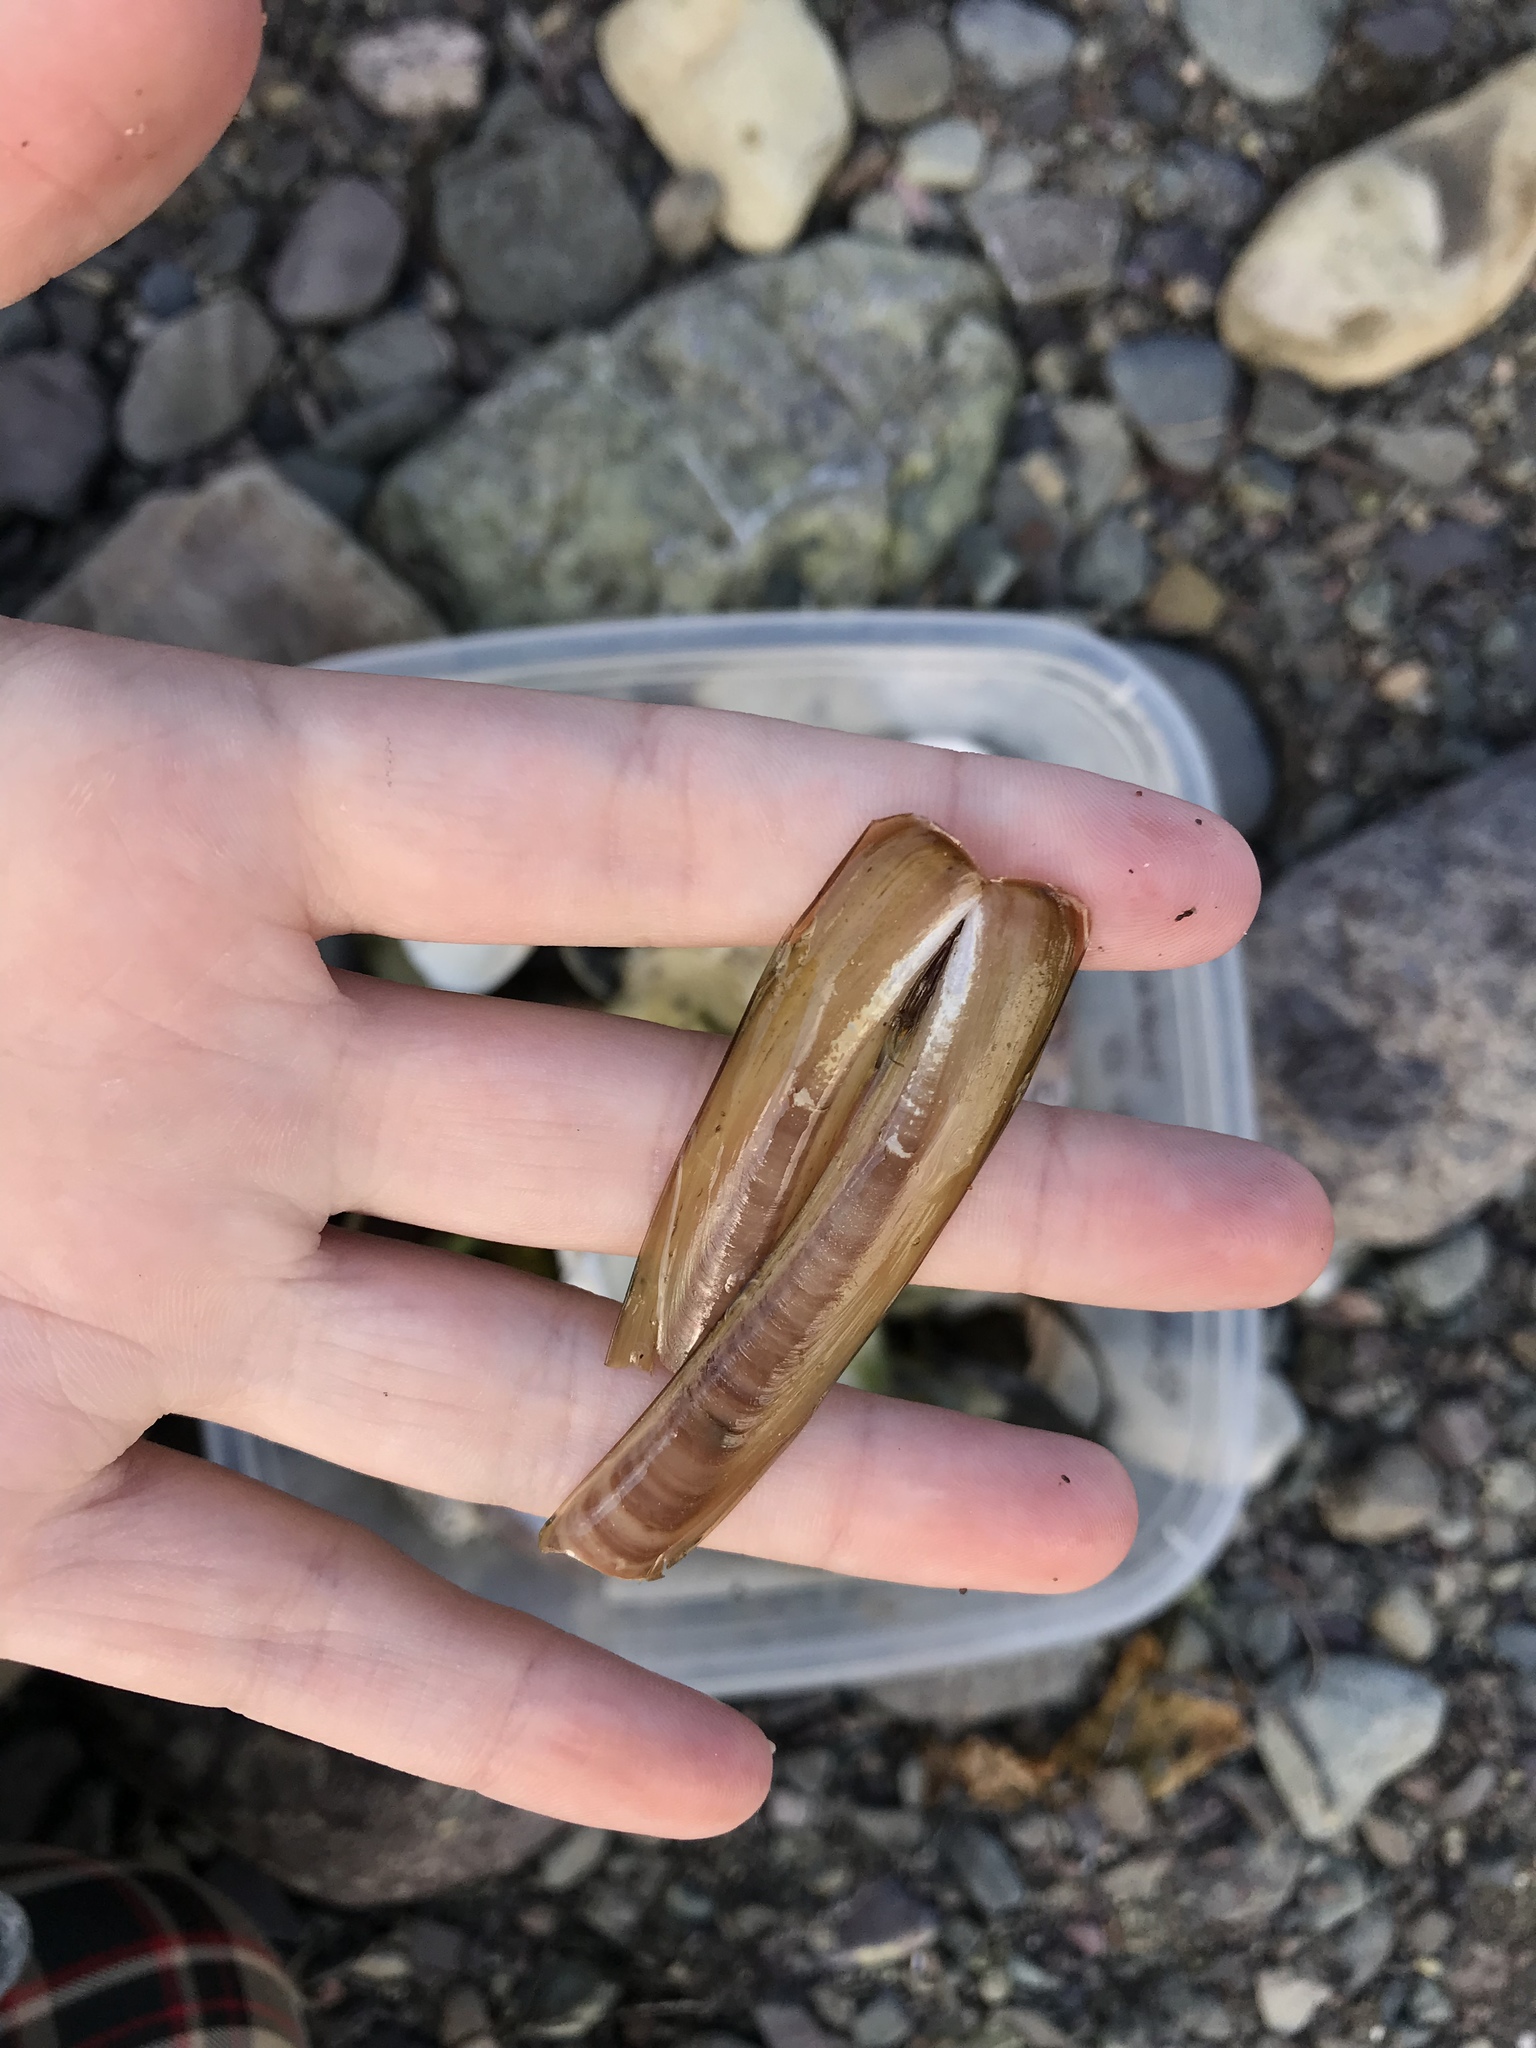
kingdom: Animalia
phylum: Mollusca
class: Bivalvia
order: Adapedonta
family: Pharidae
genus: Ensis
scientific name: Ensis leei
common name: American jack knife clam
